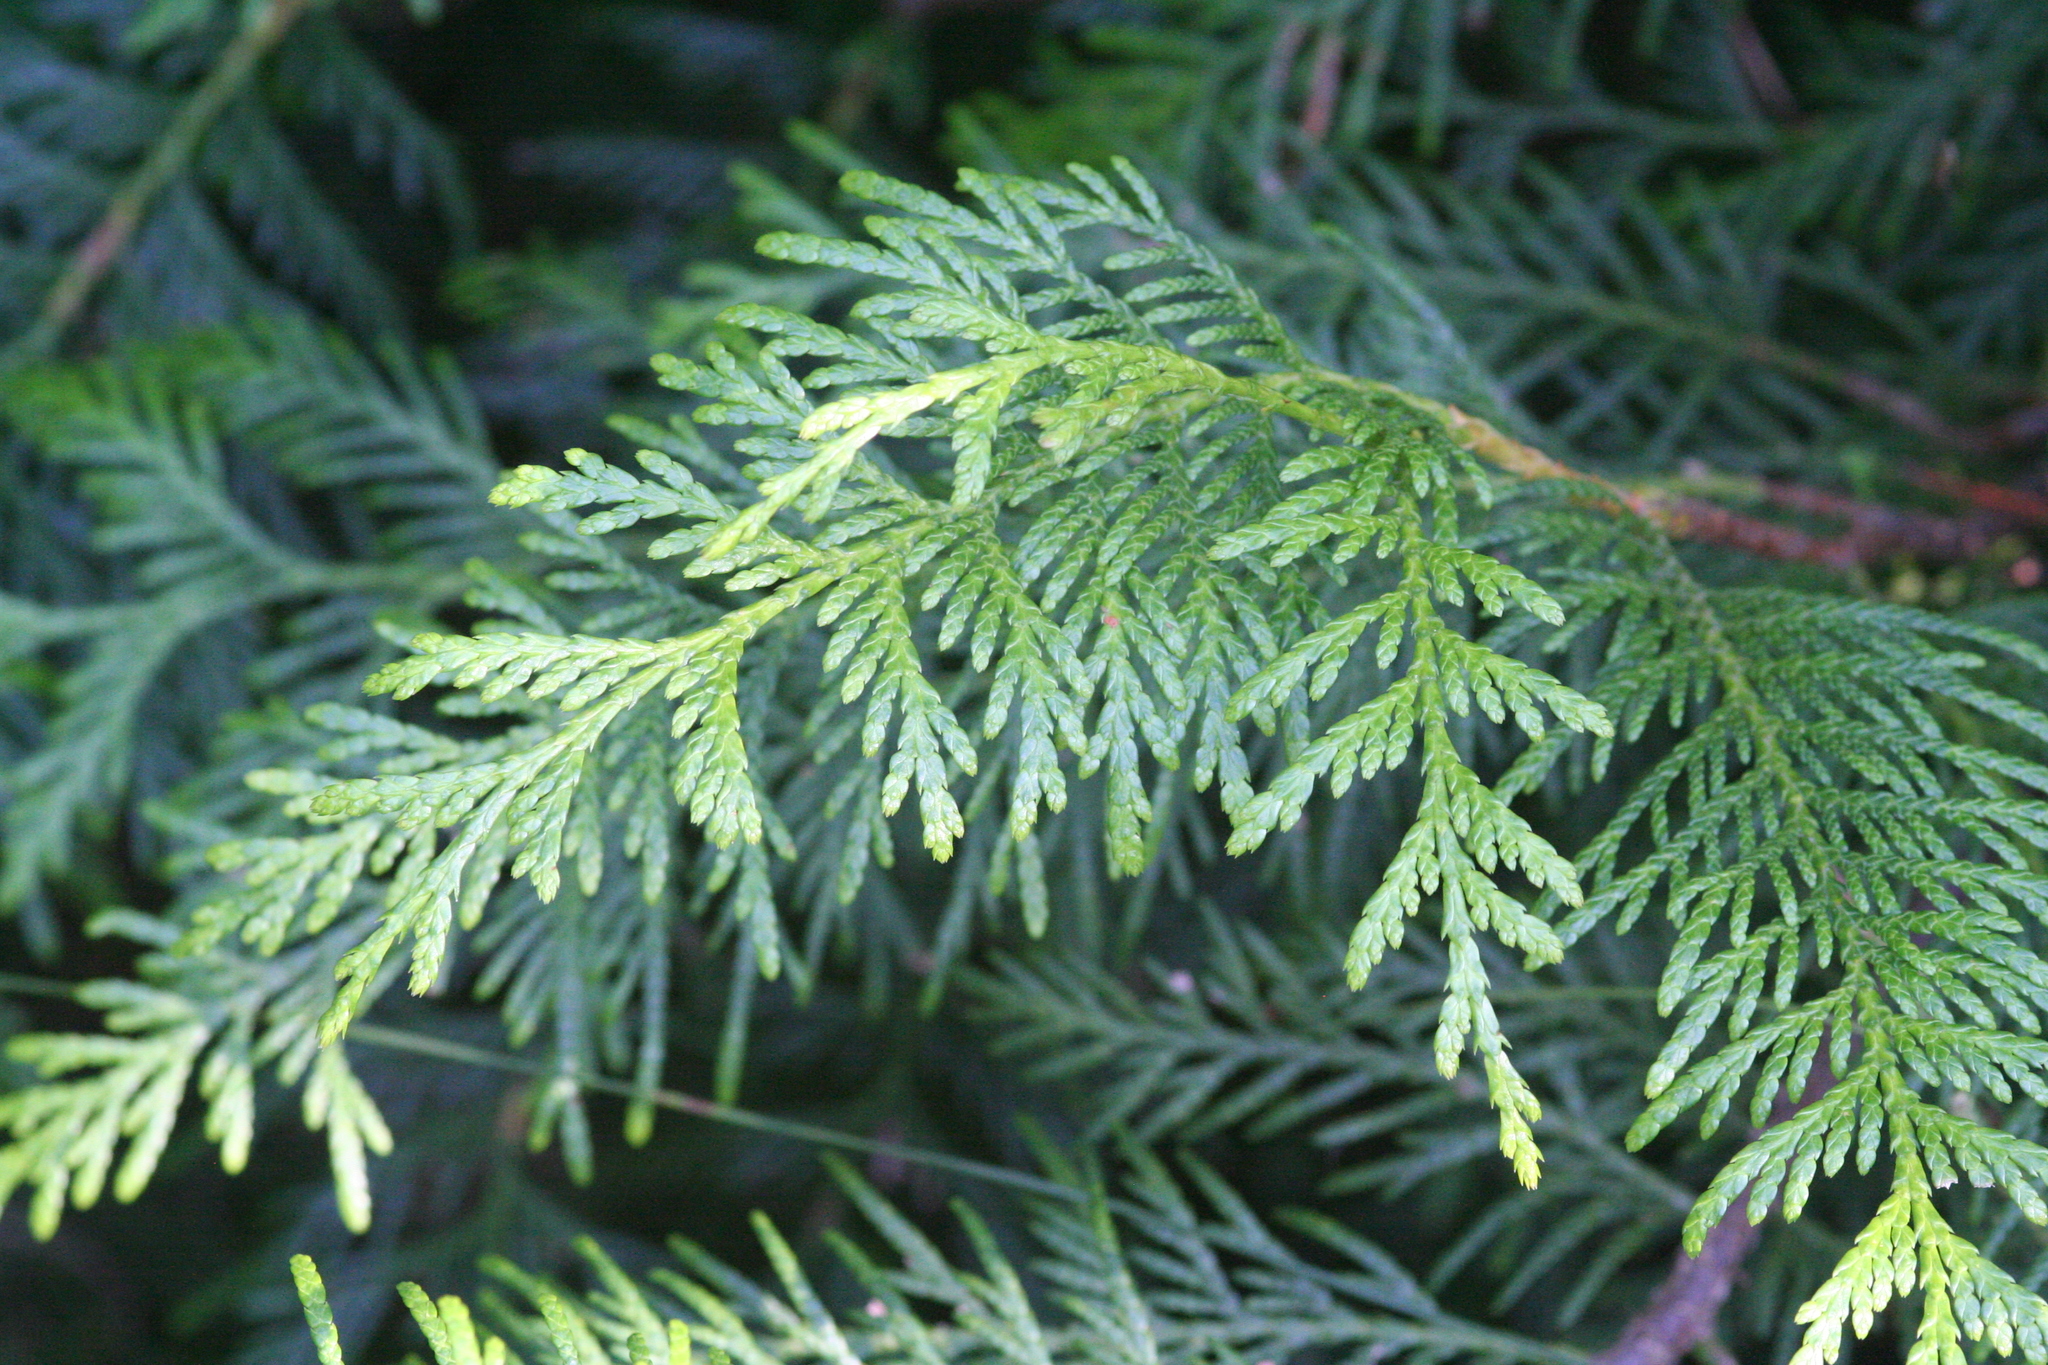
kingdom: Plantae
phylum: Tracheophyta
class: Pinopsida
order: Pinales
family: Cupressaceae
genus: Thuja
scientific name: Thuja plicata
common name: Western red-cedar
